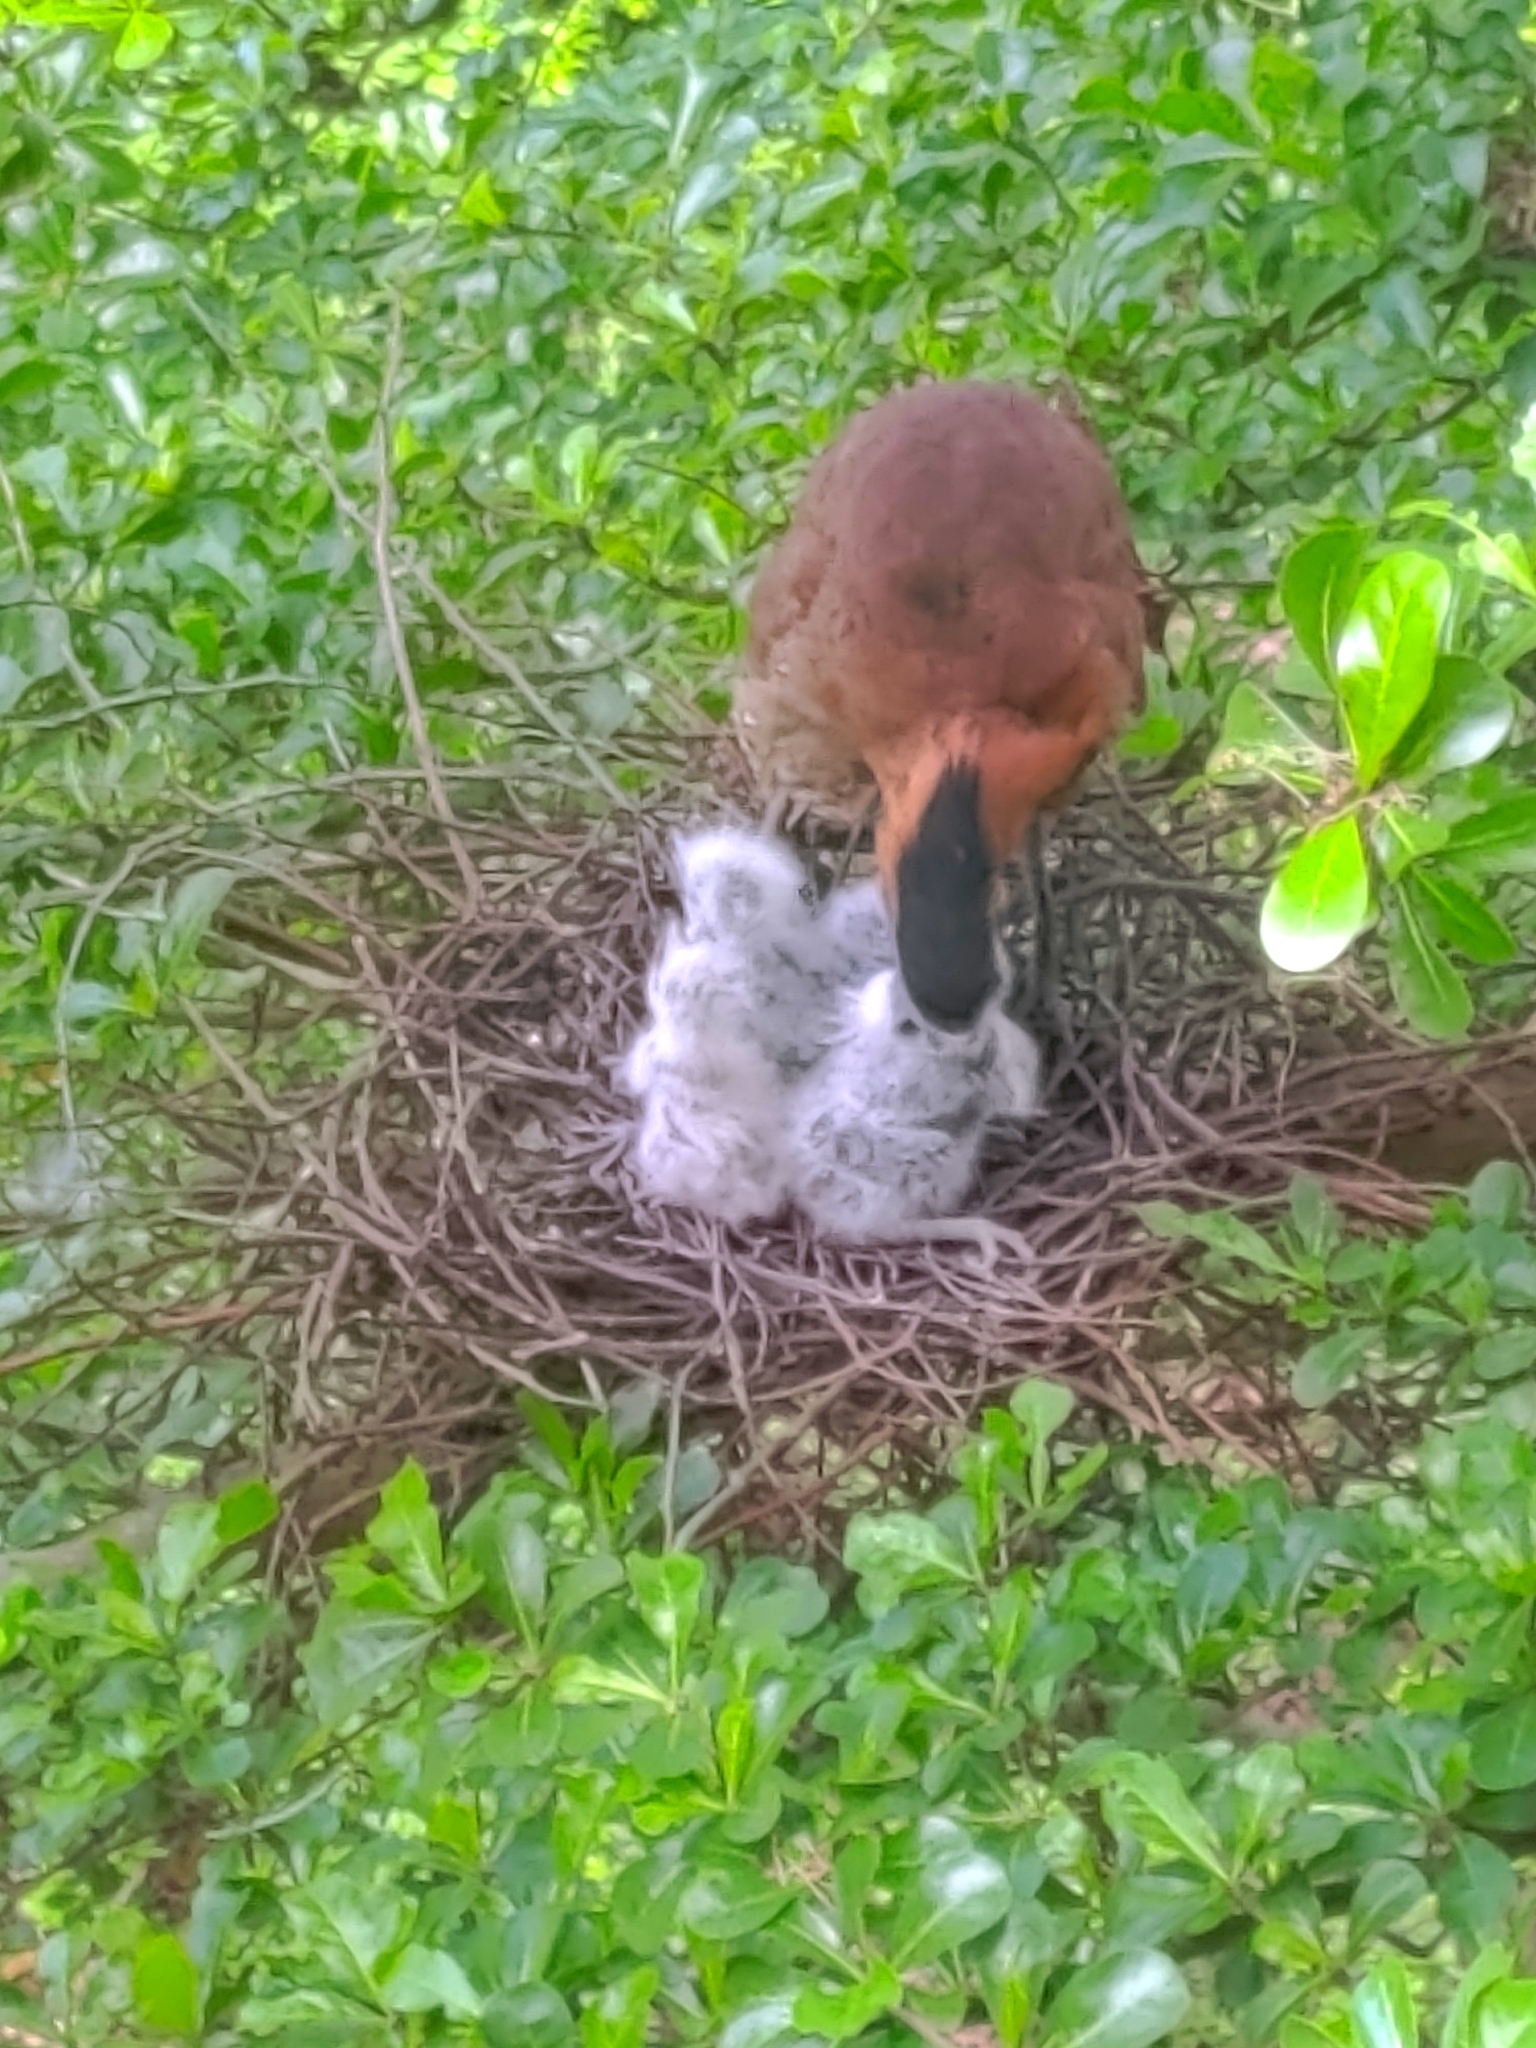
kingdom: Animalia
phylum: Chordata
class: Aves
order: Pelecaniformes
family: Ardeidae
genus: Gorsachius
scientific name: Gorsachius melanolophus
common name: Malayan night heron
